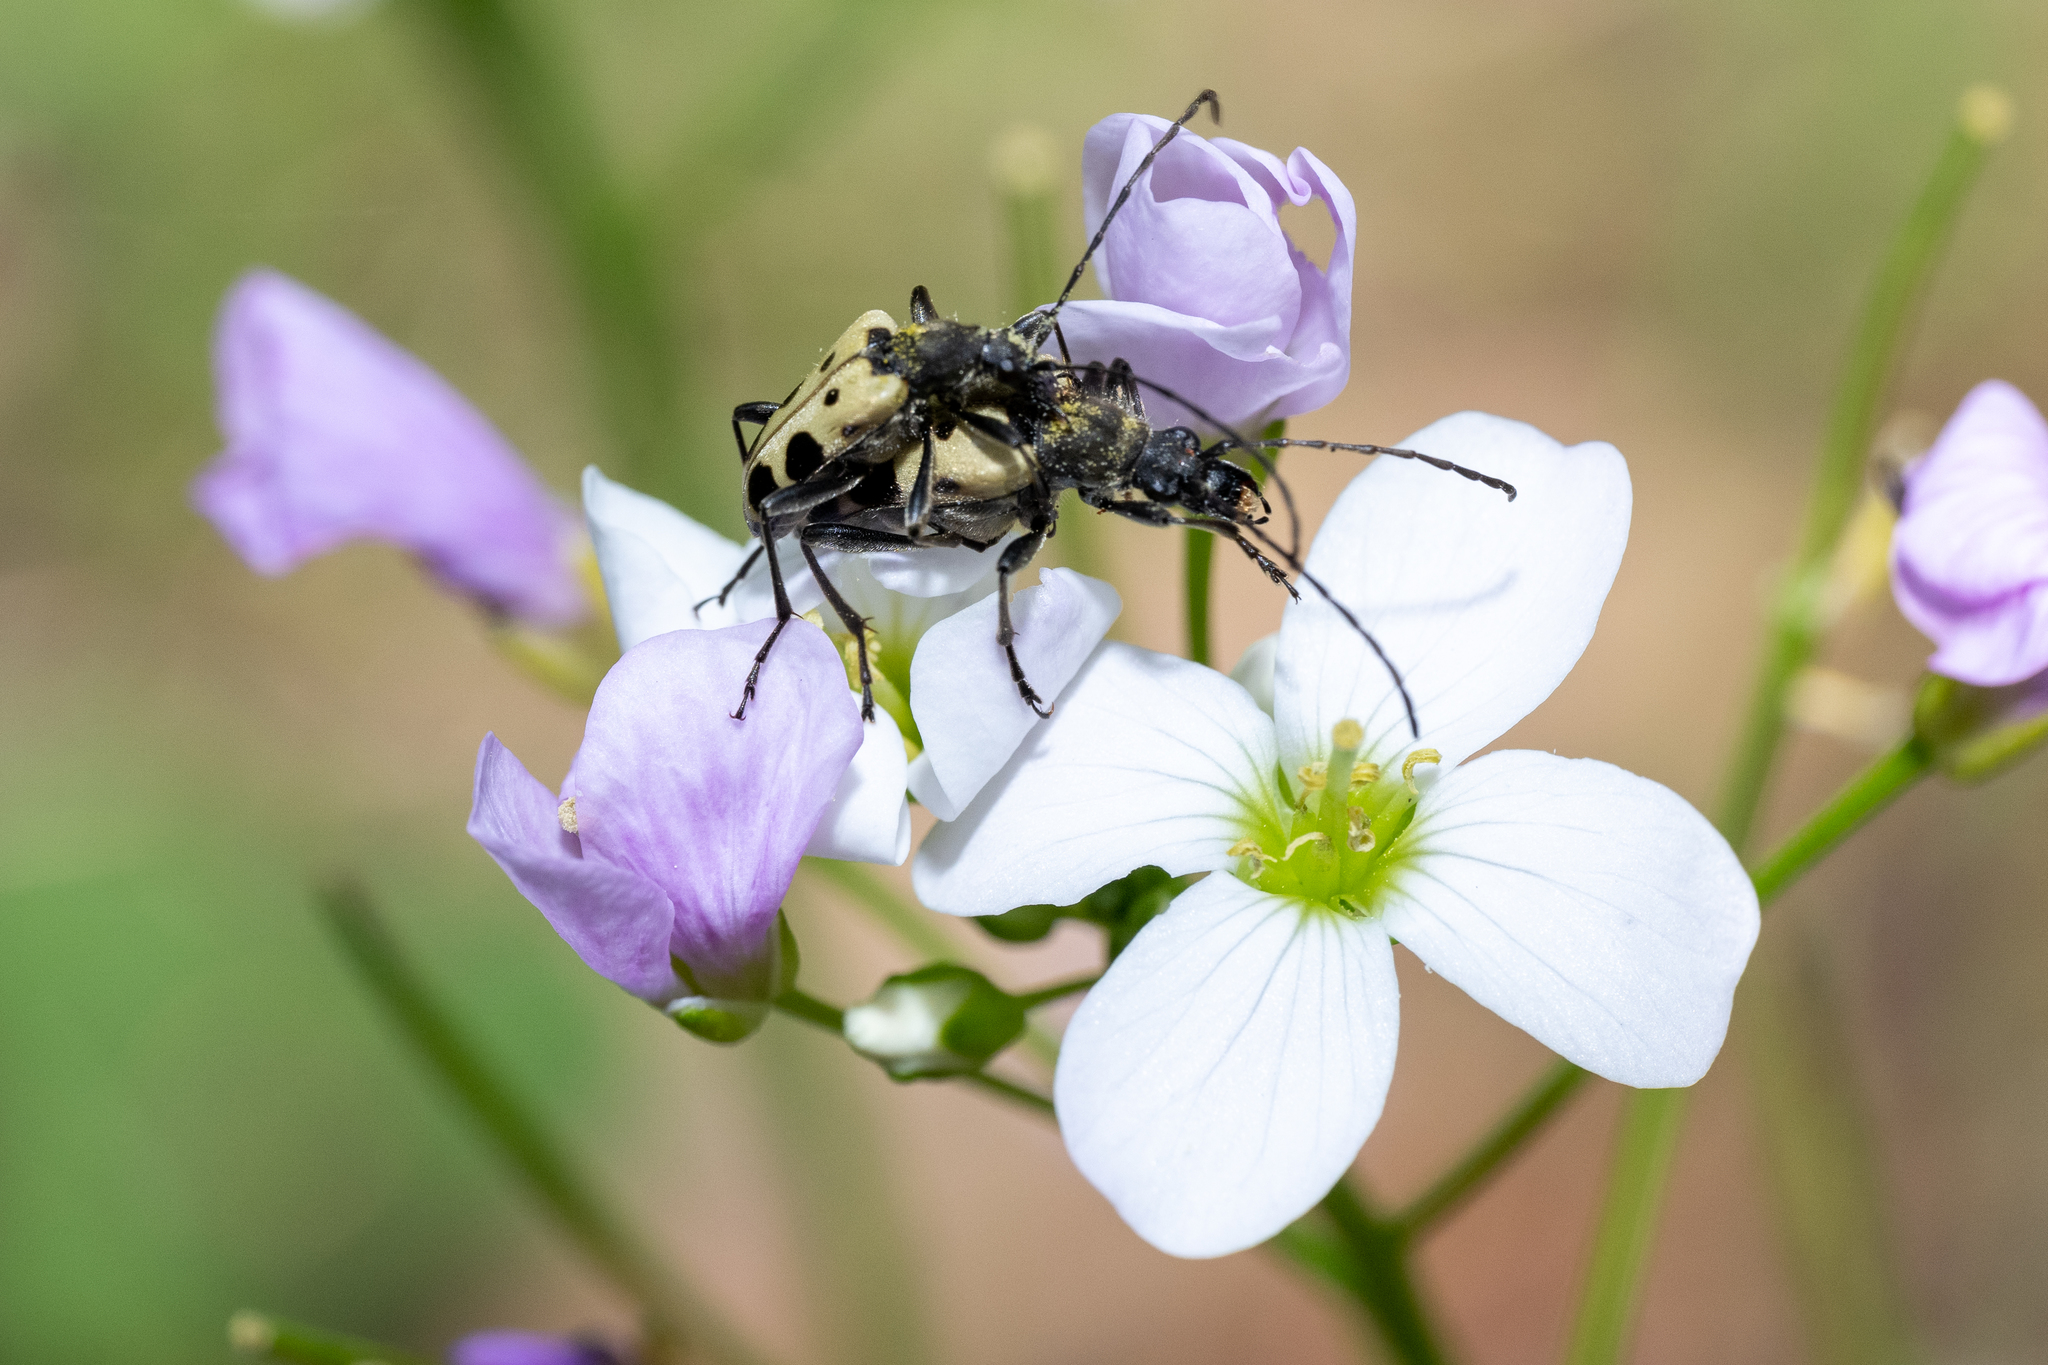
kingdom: Animalia
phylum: Arthropoda
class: Insecta
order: Coleoptera
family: Cerambycidae
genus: Evodinus
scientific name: Evodinus monticola
